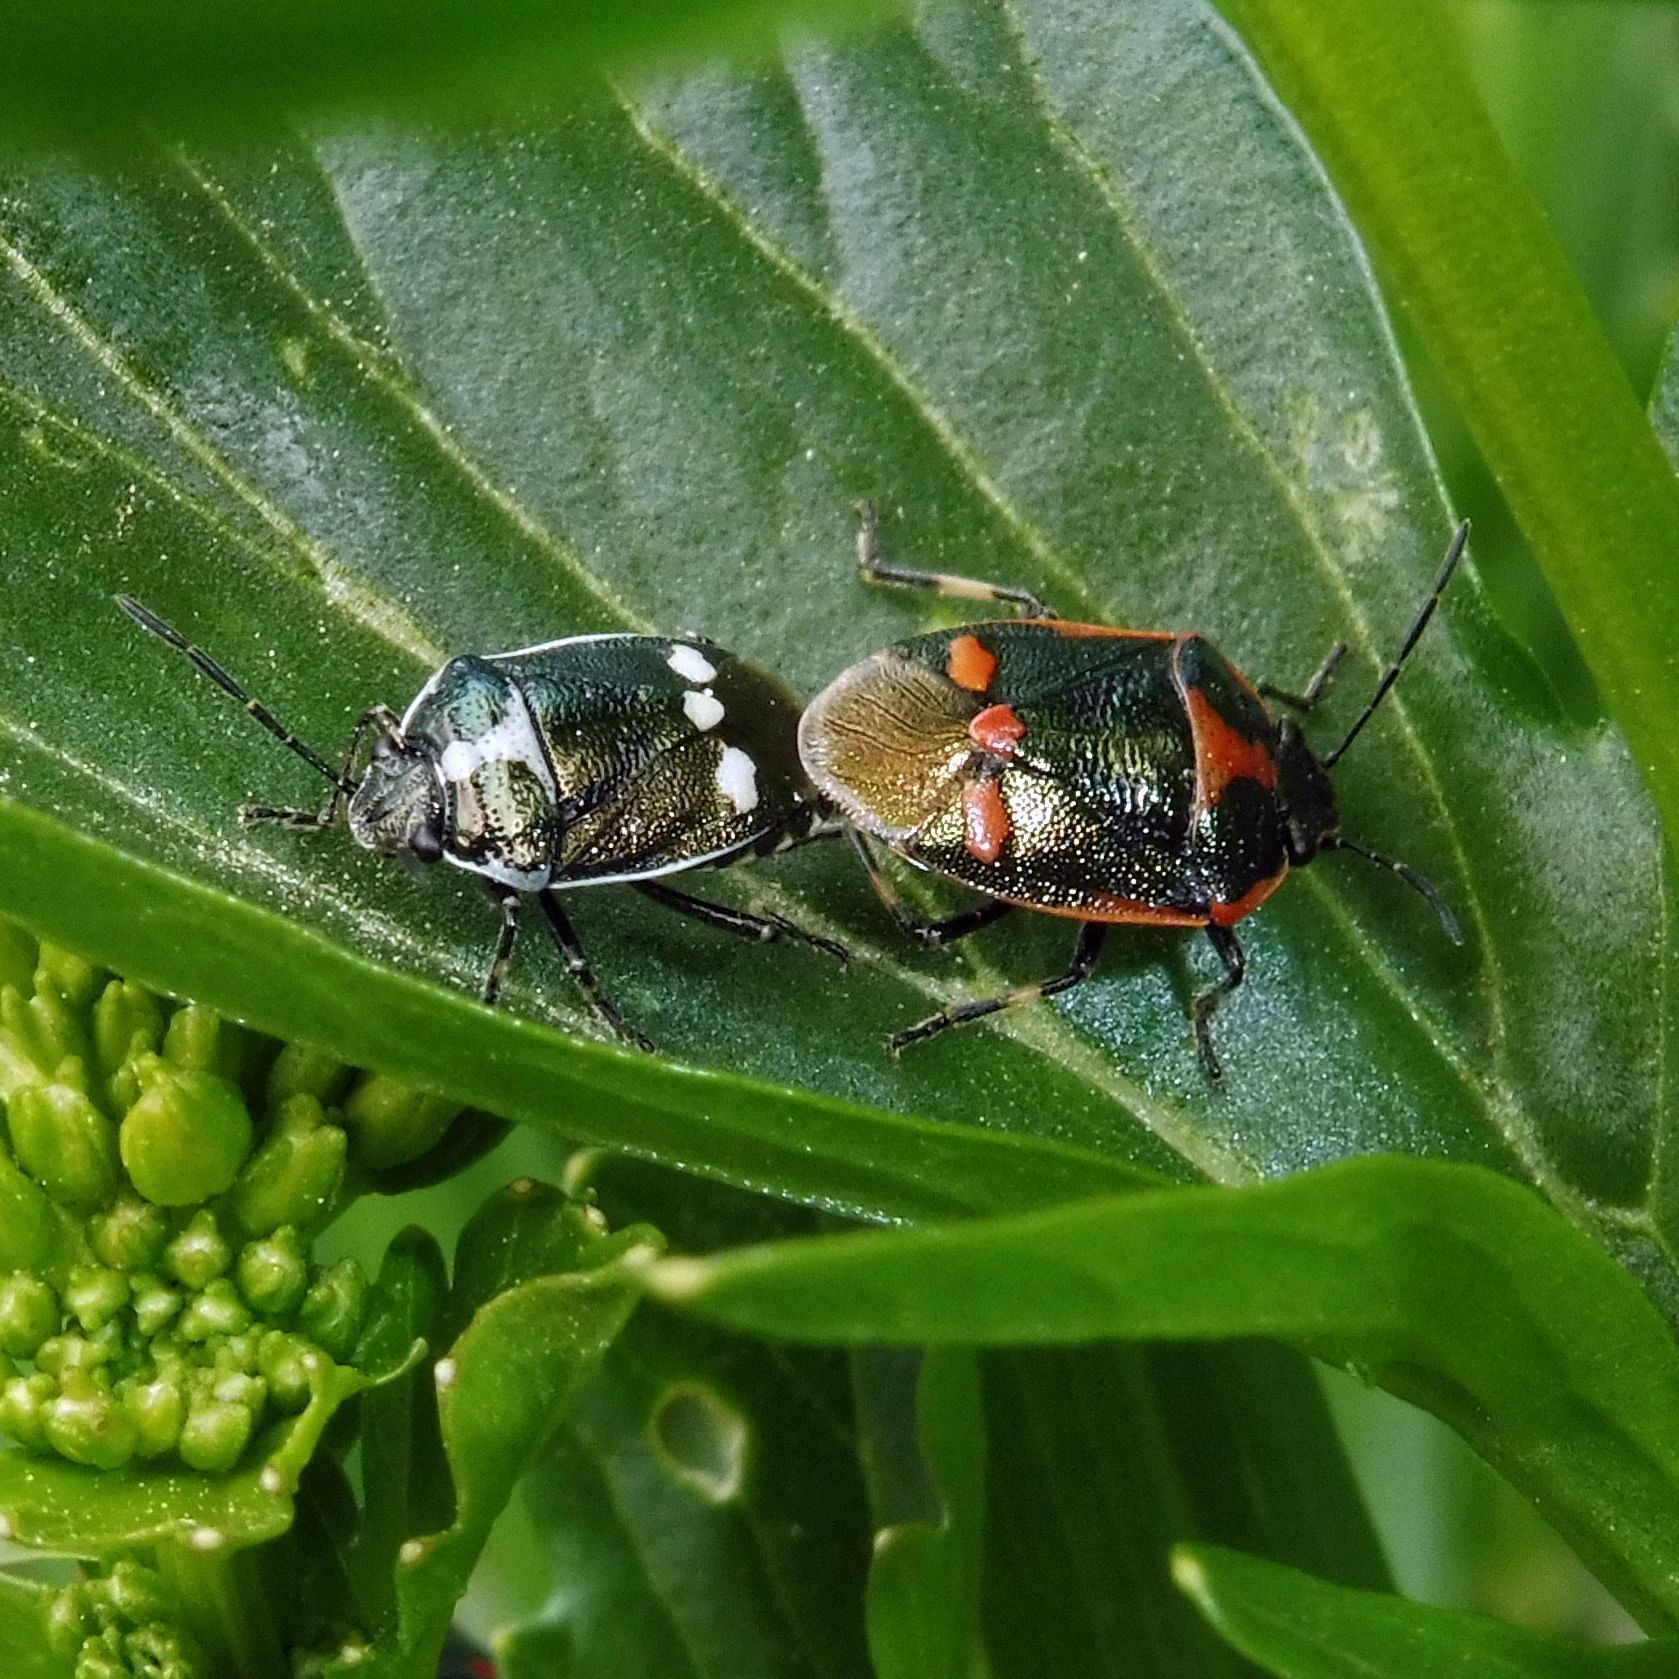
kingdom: Animalia
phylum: Arthropoda
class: Insecta
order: Hemiptera
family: Pentatomidae
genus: Eurydema
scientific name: Eurydema oleracea
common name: Cabbage bug
